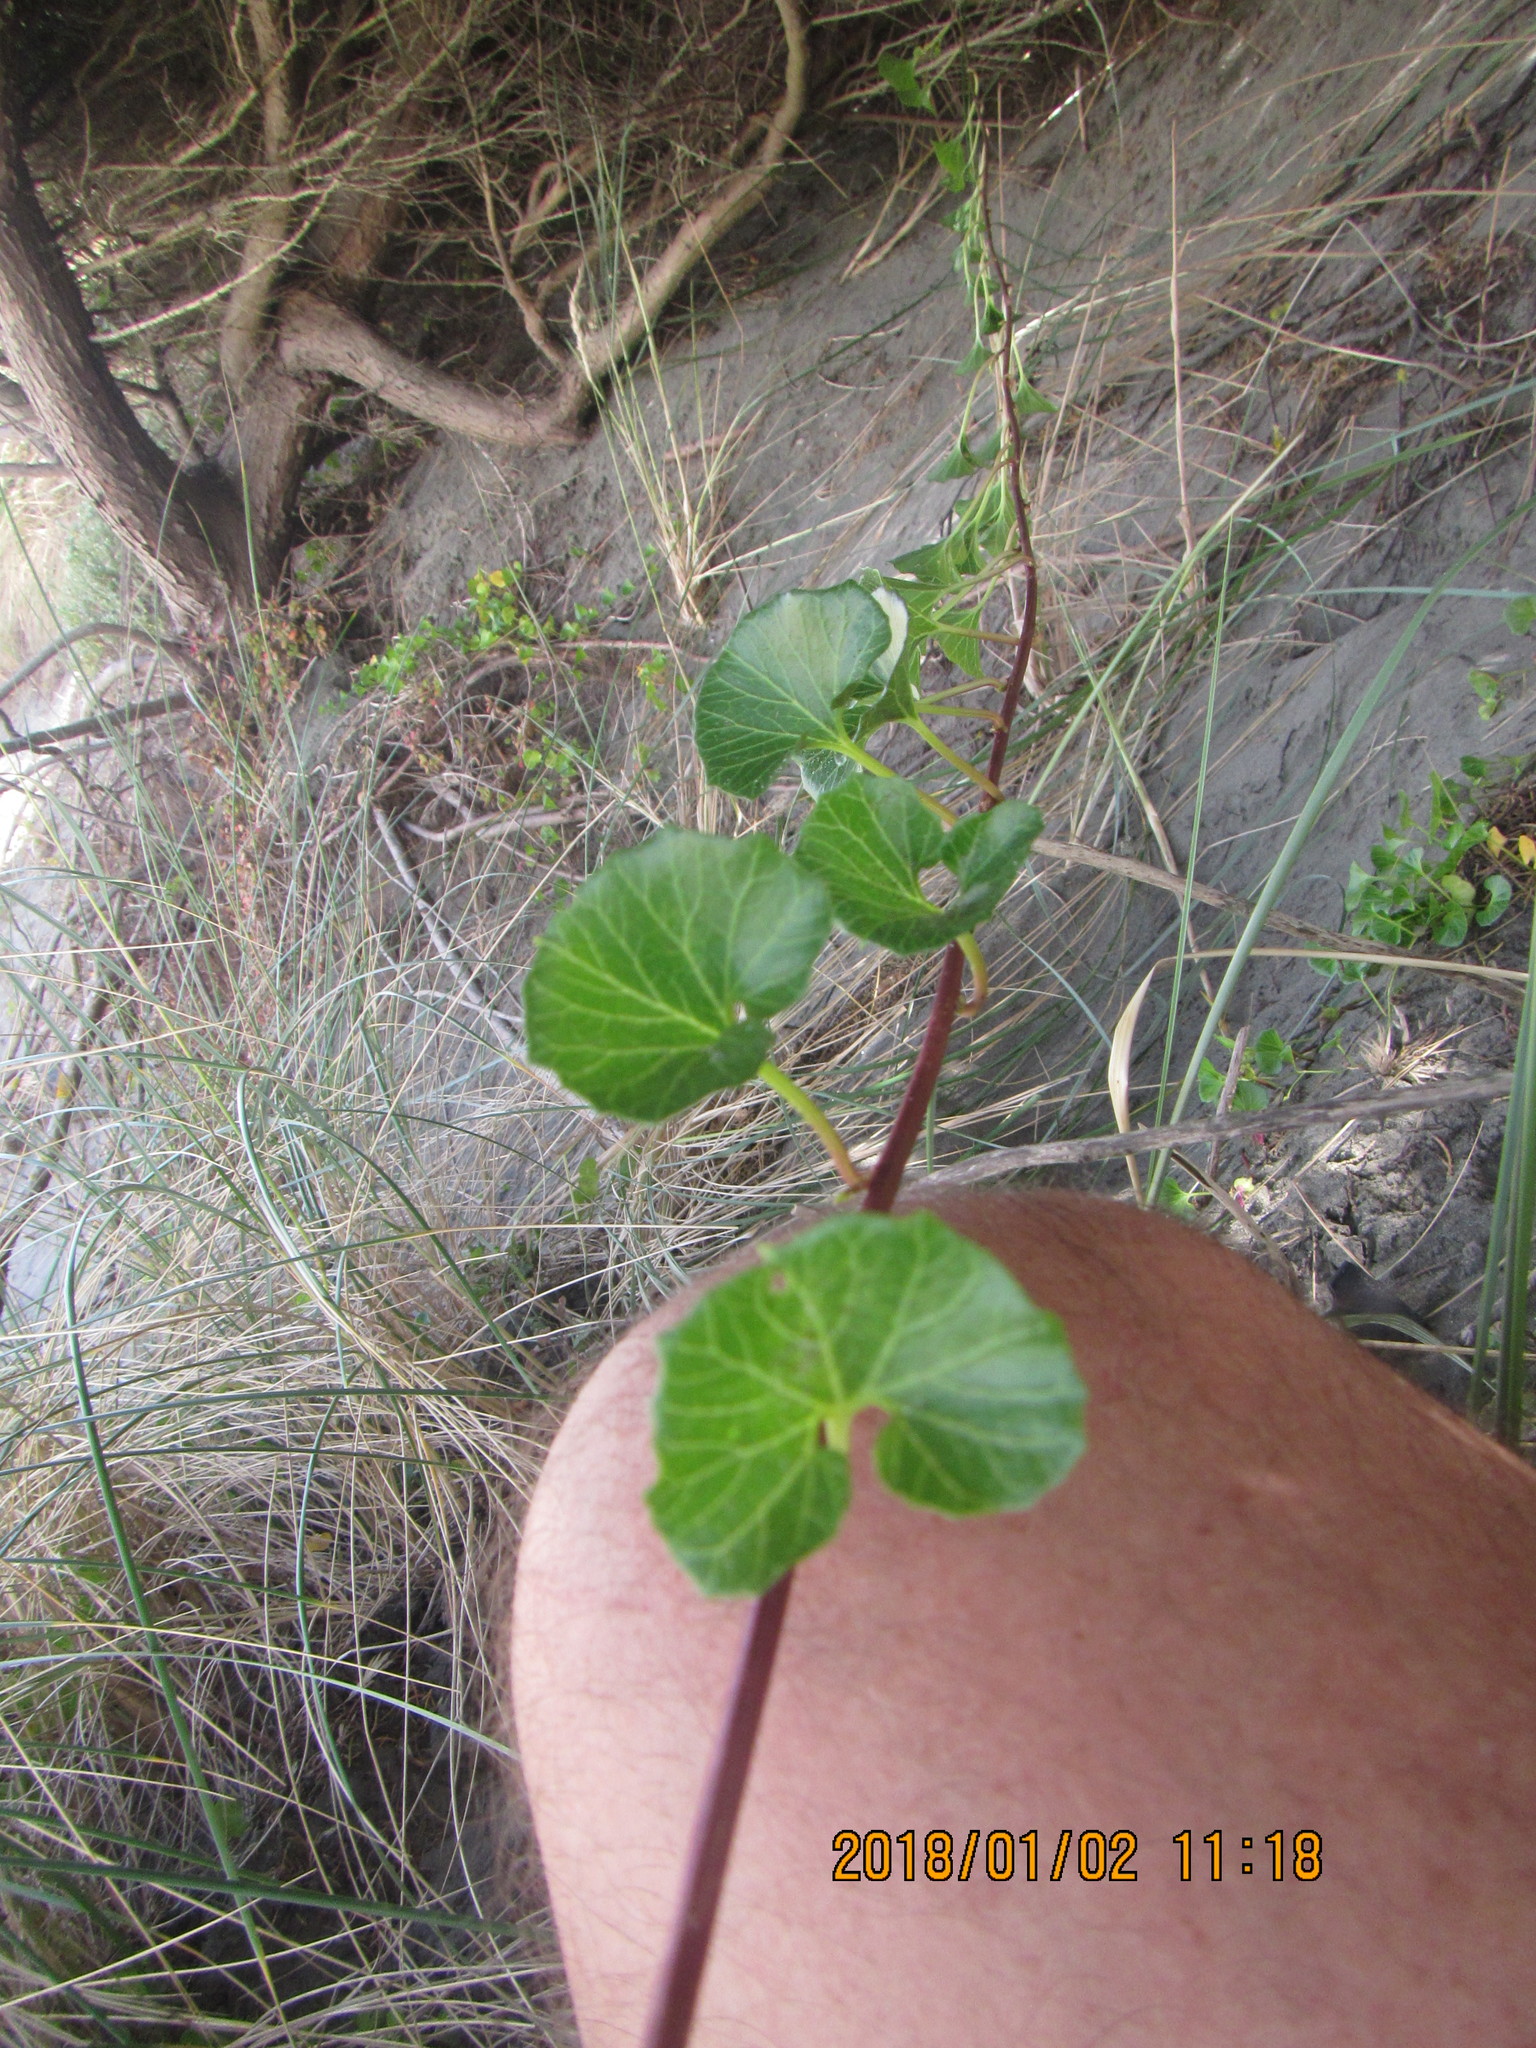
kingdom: Plantae
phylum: Tracheophyta
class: Magnoliopsida
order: Solanales
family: Convolvulaceae
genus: Calystegia
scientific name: Calystegia soldanella
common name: Sea bindweed
